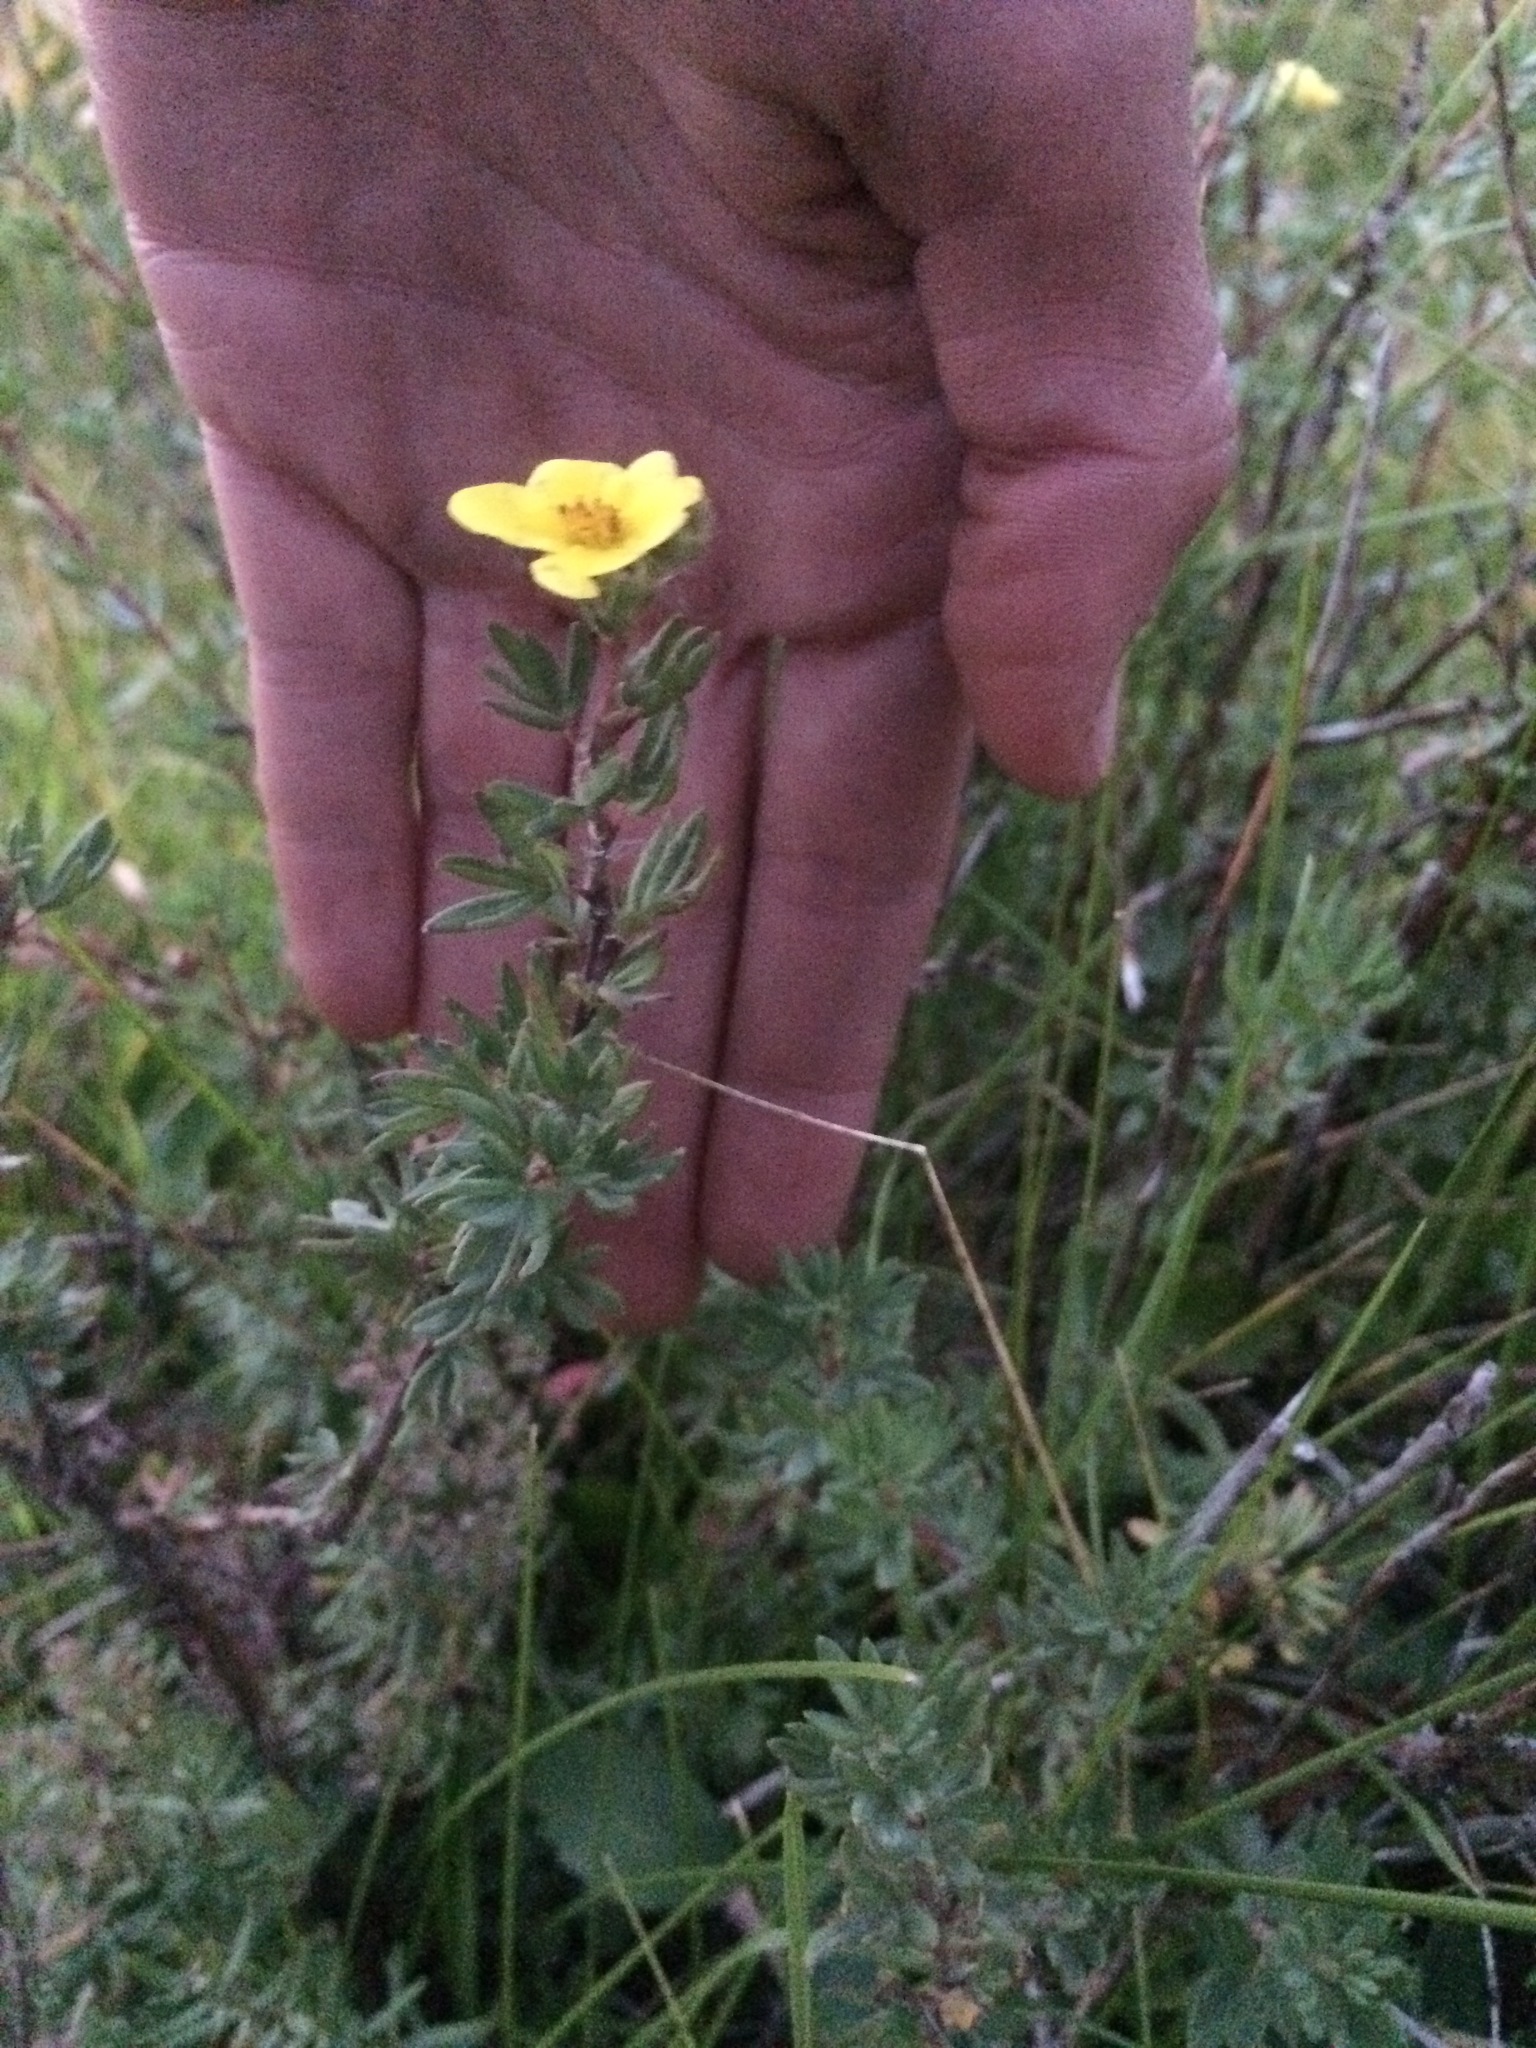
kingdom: Plantae
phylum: Tracheophyta
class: Magnoliopsida
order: Rosales
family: Rosaceae
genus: Dasiphora
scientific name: Dasiphora fruticosa
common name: Shrubby cinquefoil
